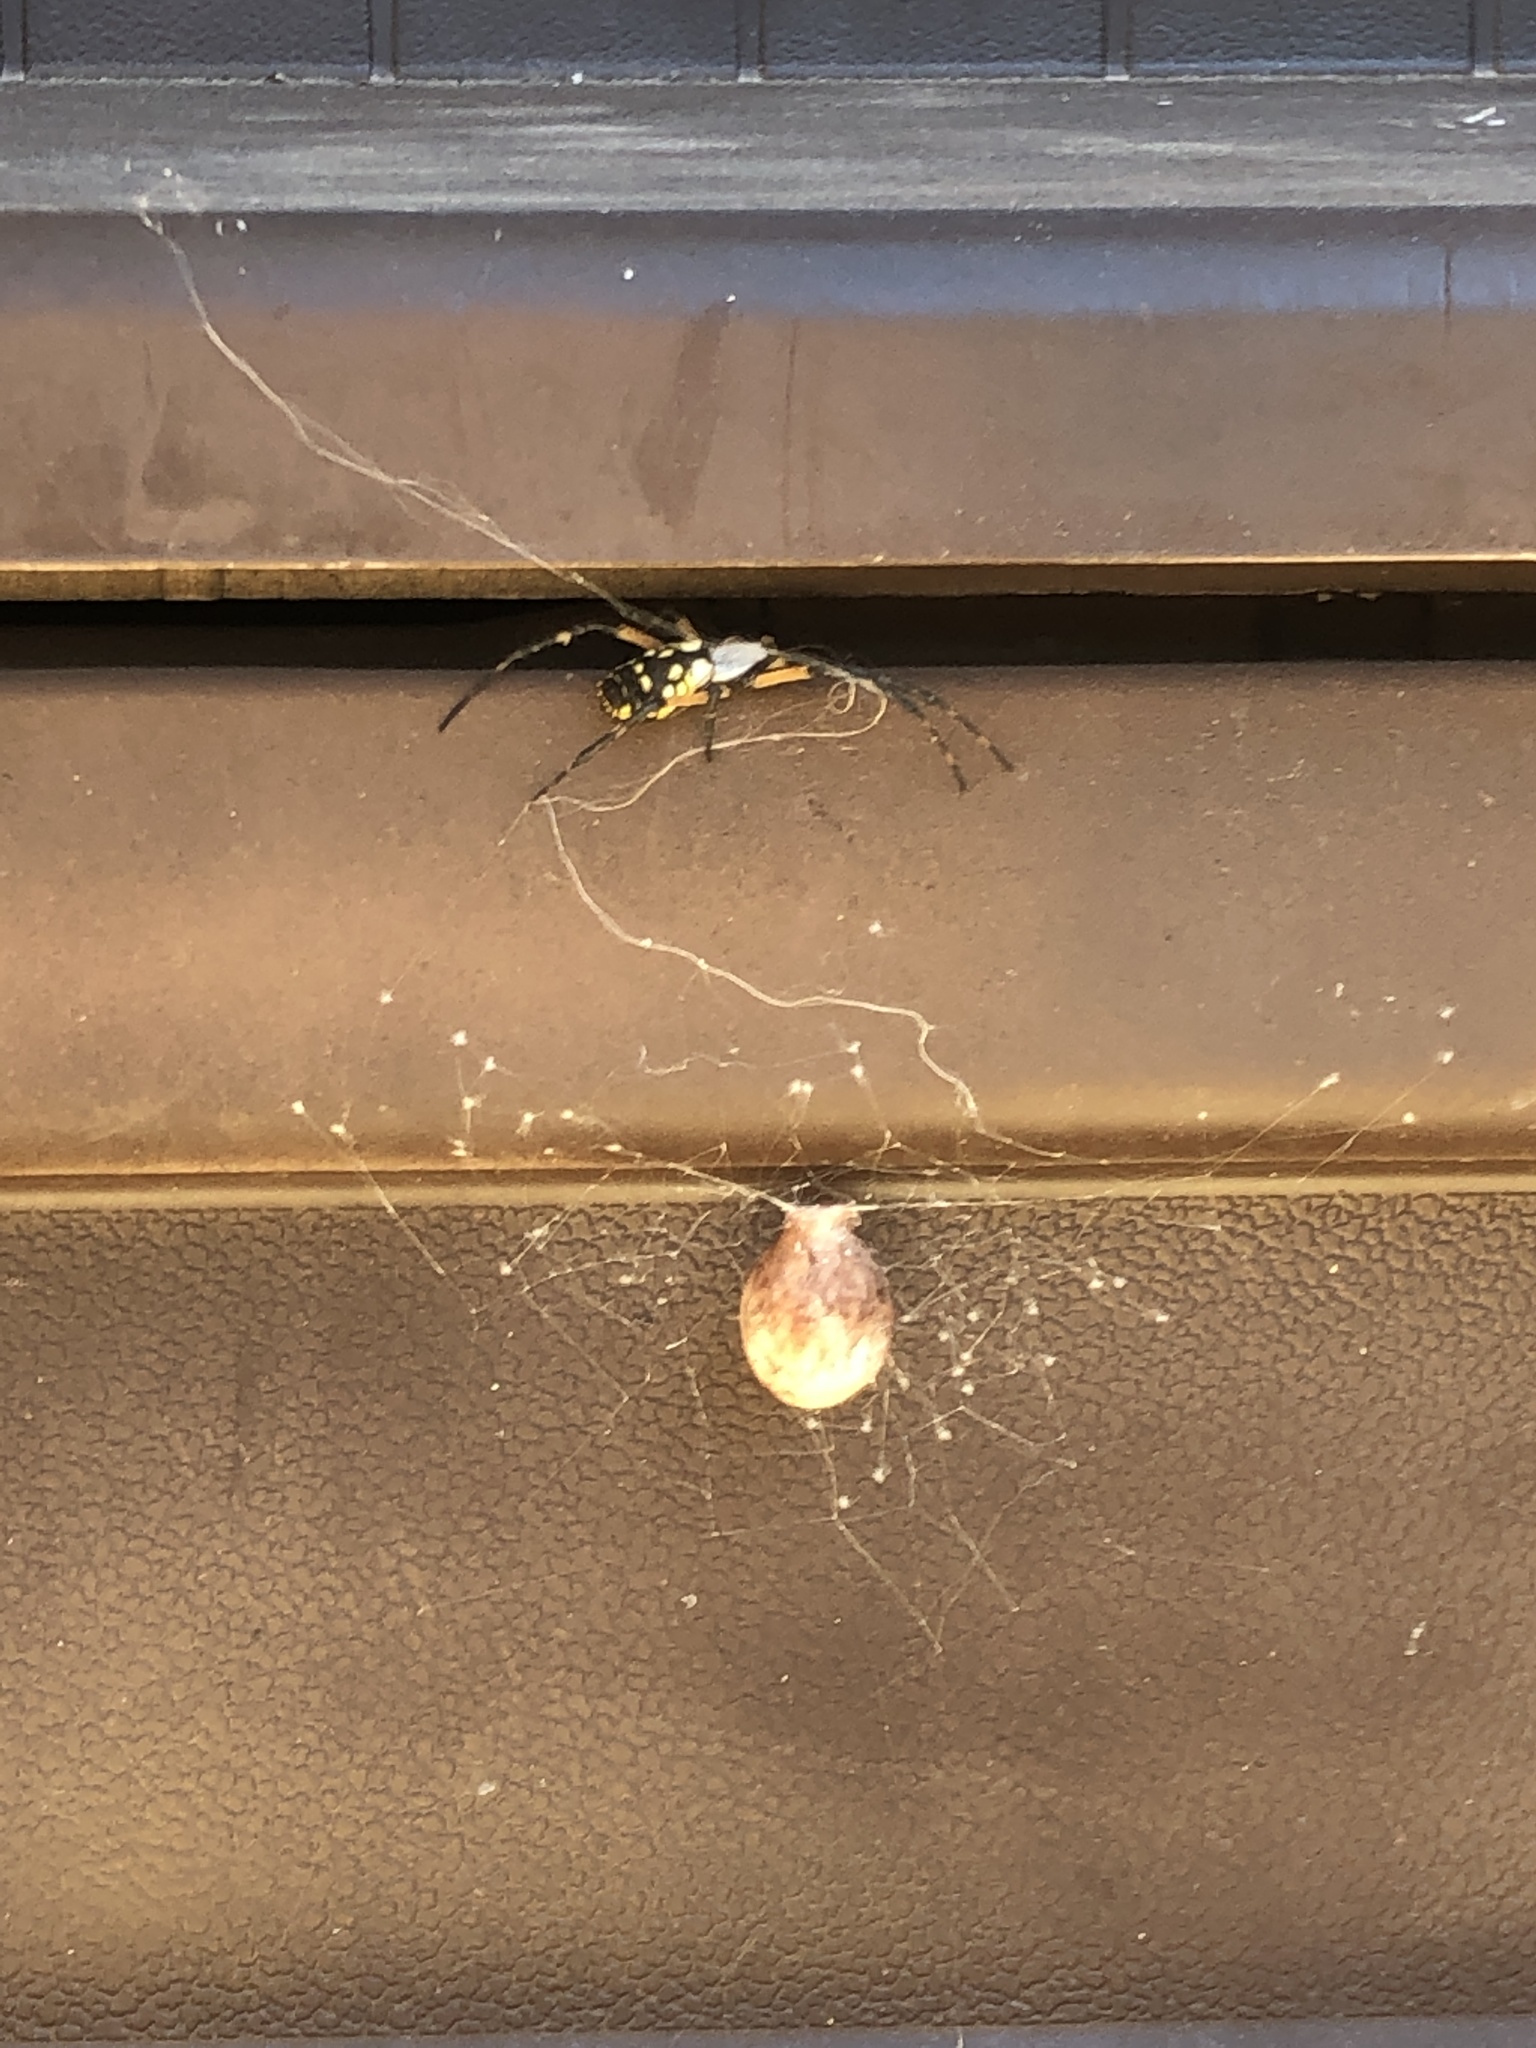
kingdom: Animalia
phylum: Arthropoda
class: Arachnida
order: Araneae
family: Araneidae
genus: Argiope
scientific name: Argiope aurantia
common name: Orb weavers
